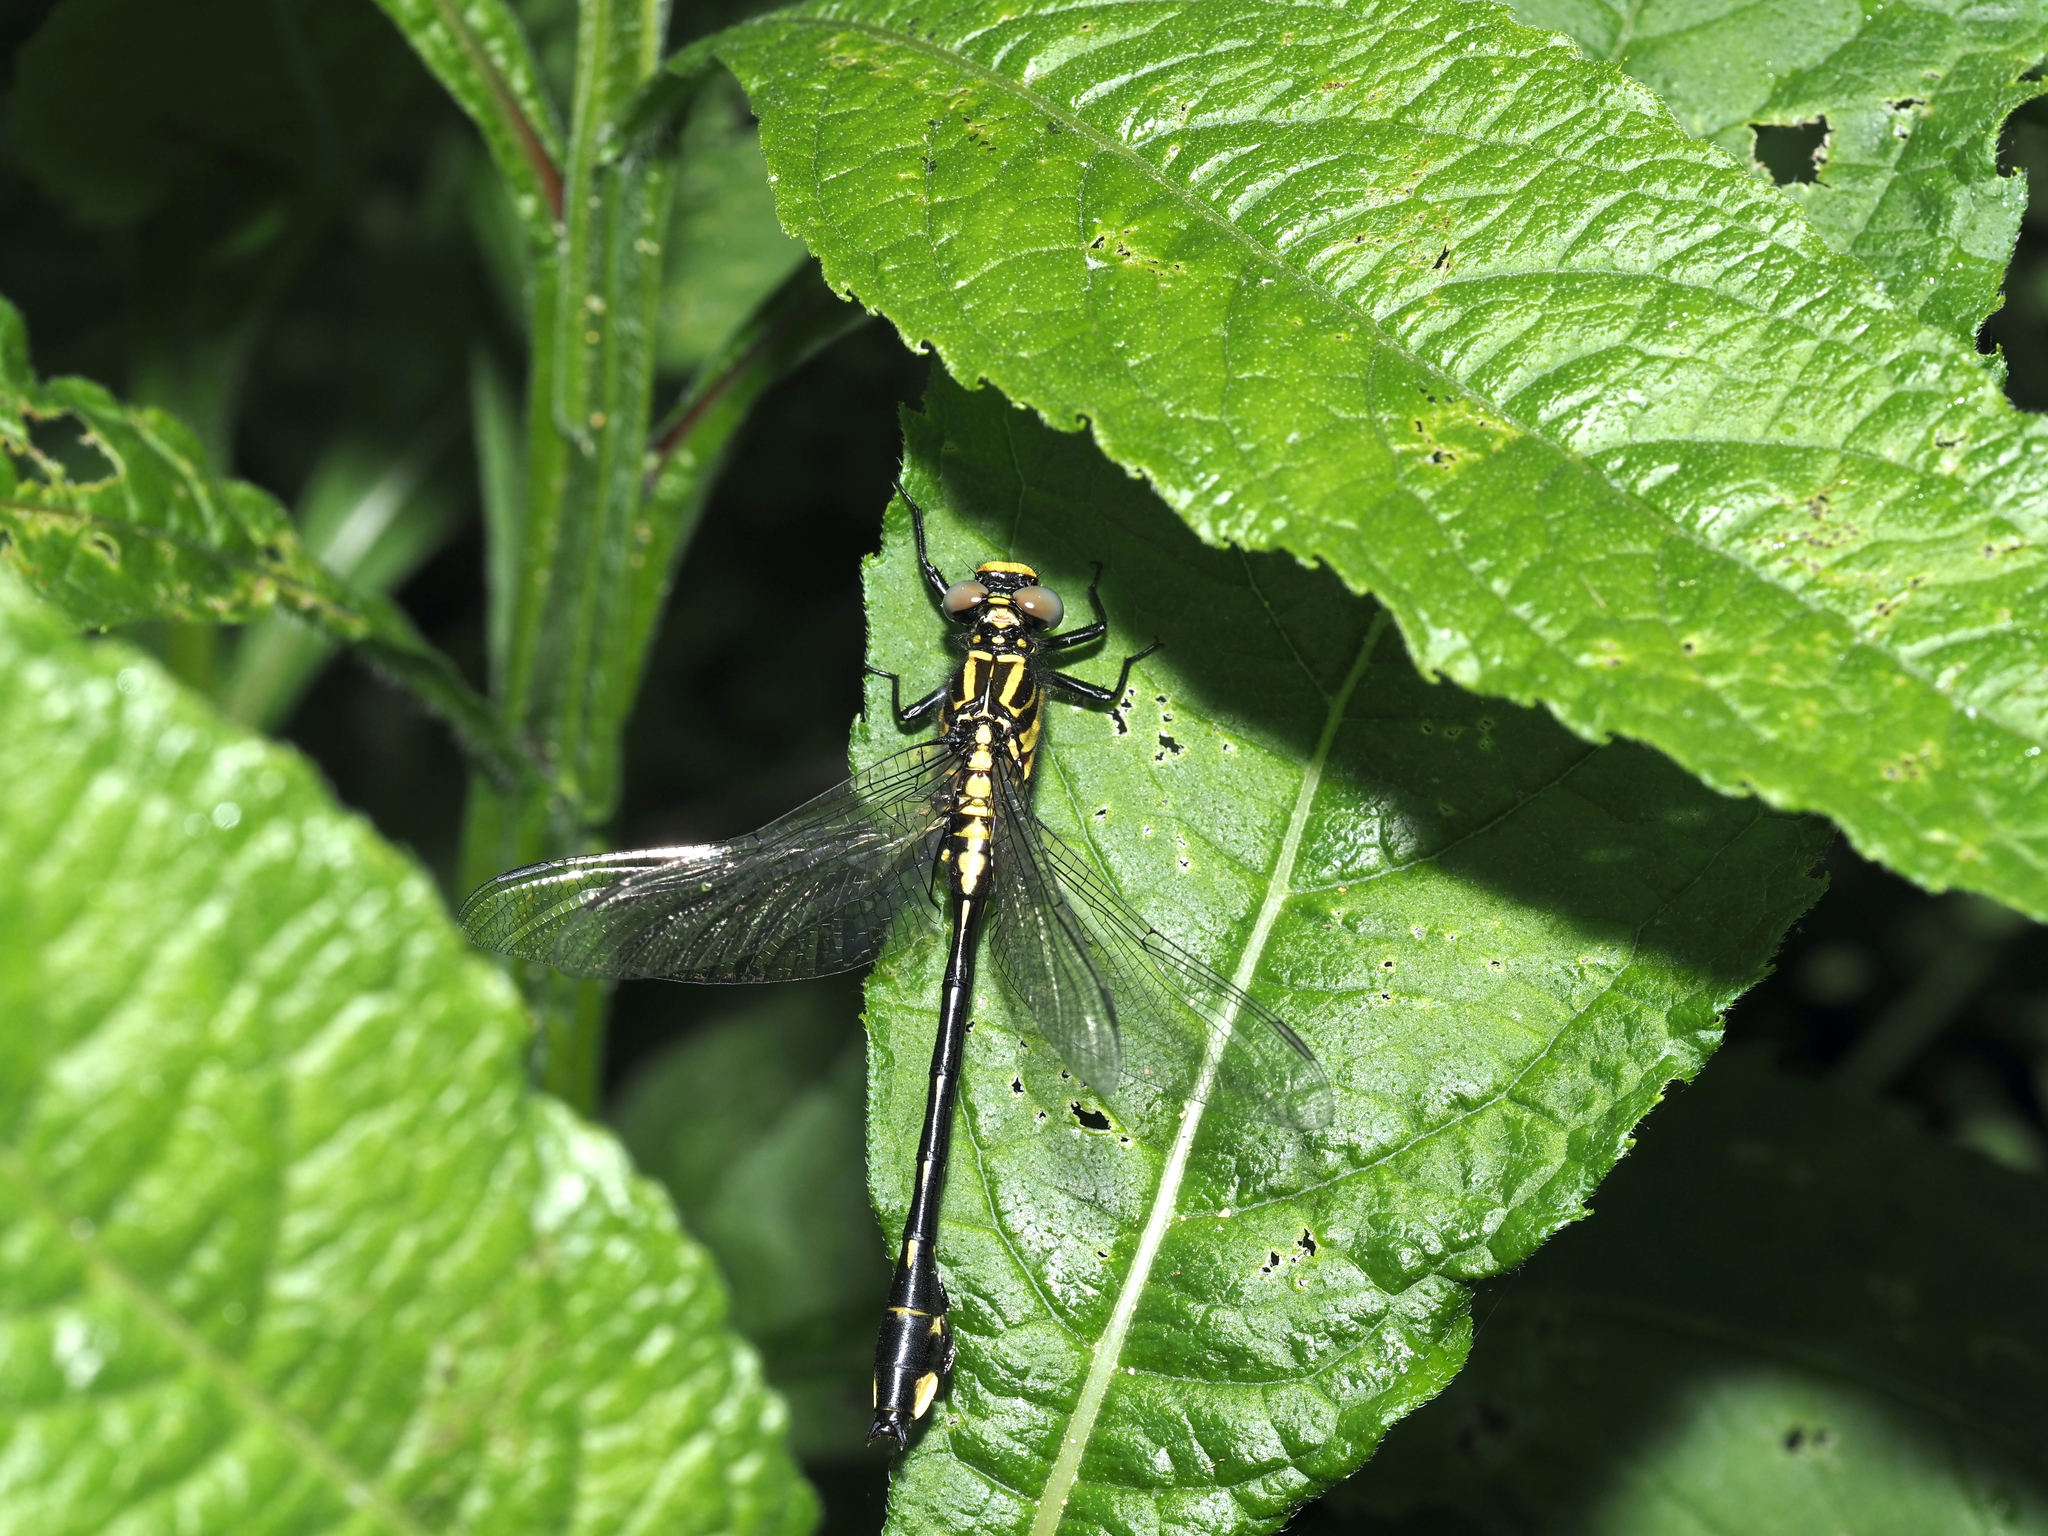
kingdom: Animalia
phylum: Arthropoda
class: Insecta
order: Odonata
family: Gomphidae
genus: Gomphurus
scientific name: Gomphurus vastus
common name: Cobra clubtail
